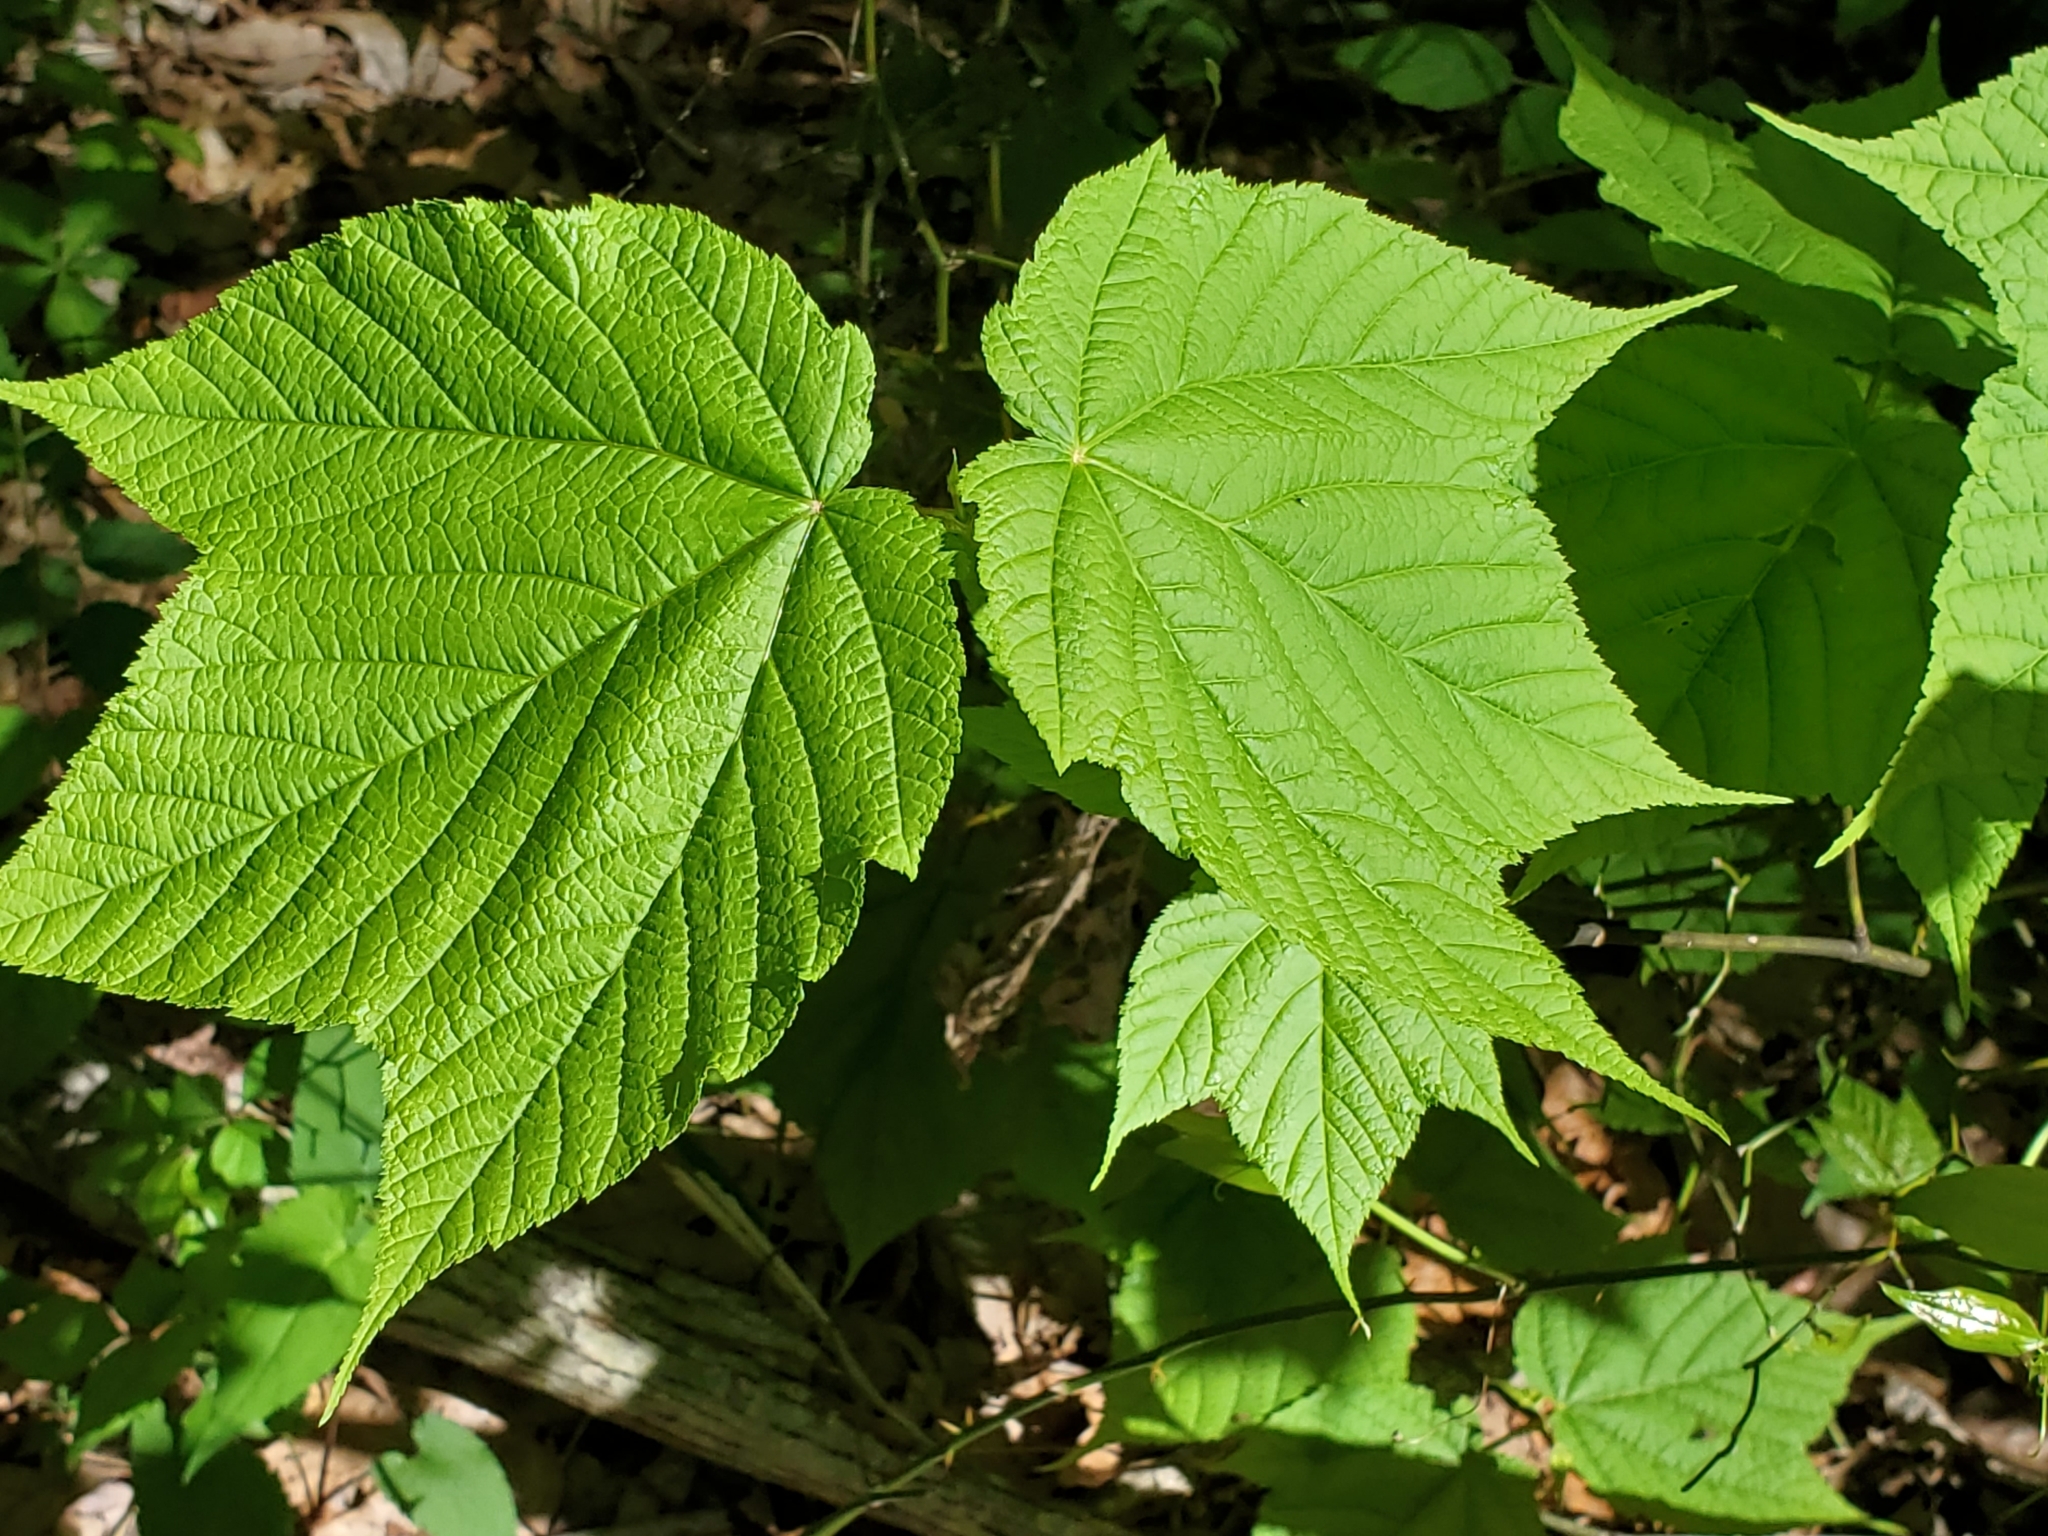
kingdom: Plantae
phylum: Tracheophyta
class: Magnoliopsida
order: Sapindales
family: Sapindaceae
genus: Acer
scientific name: Acer pensylvanicum
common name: Moosewood
